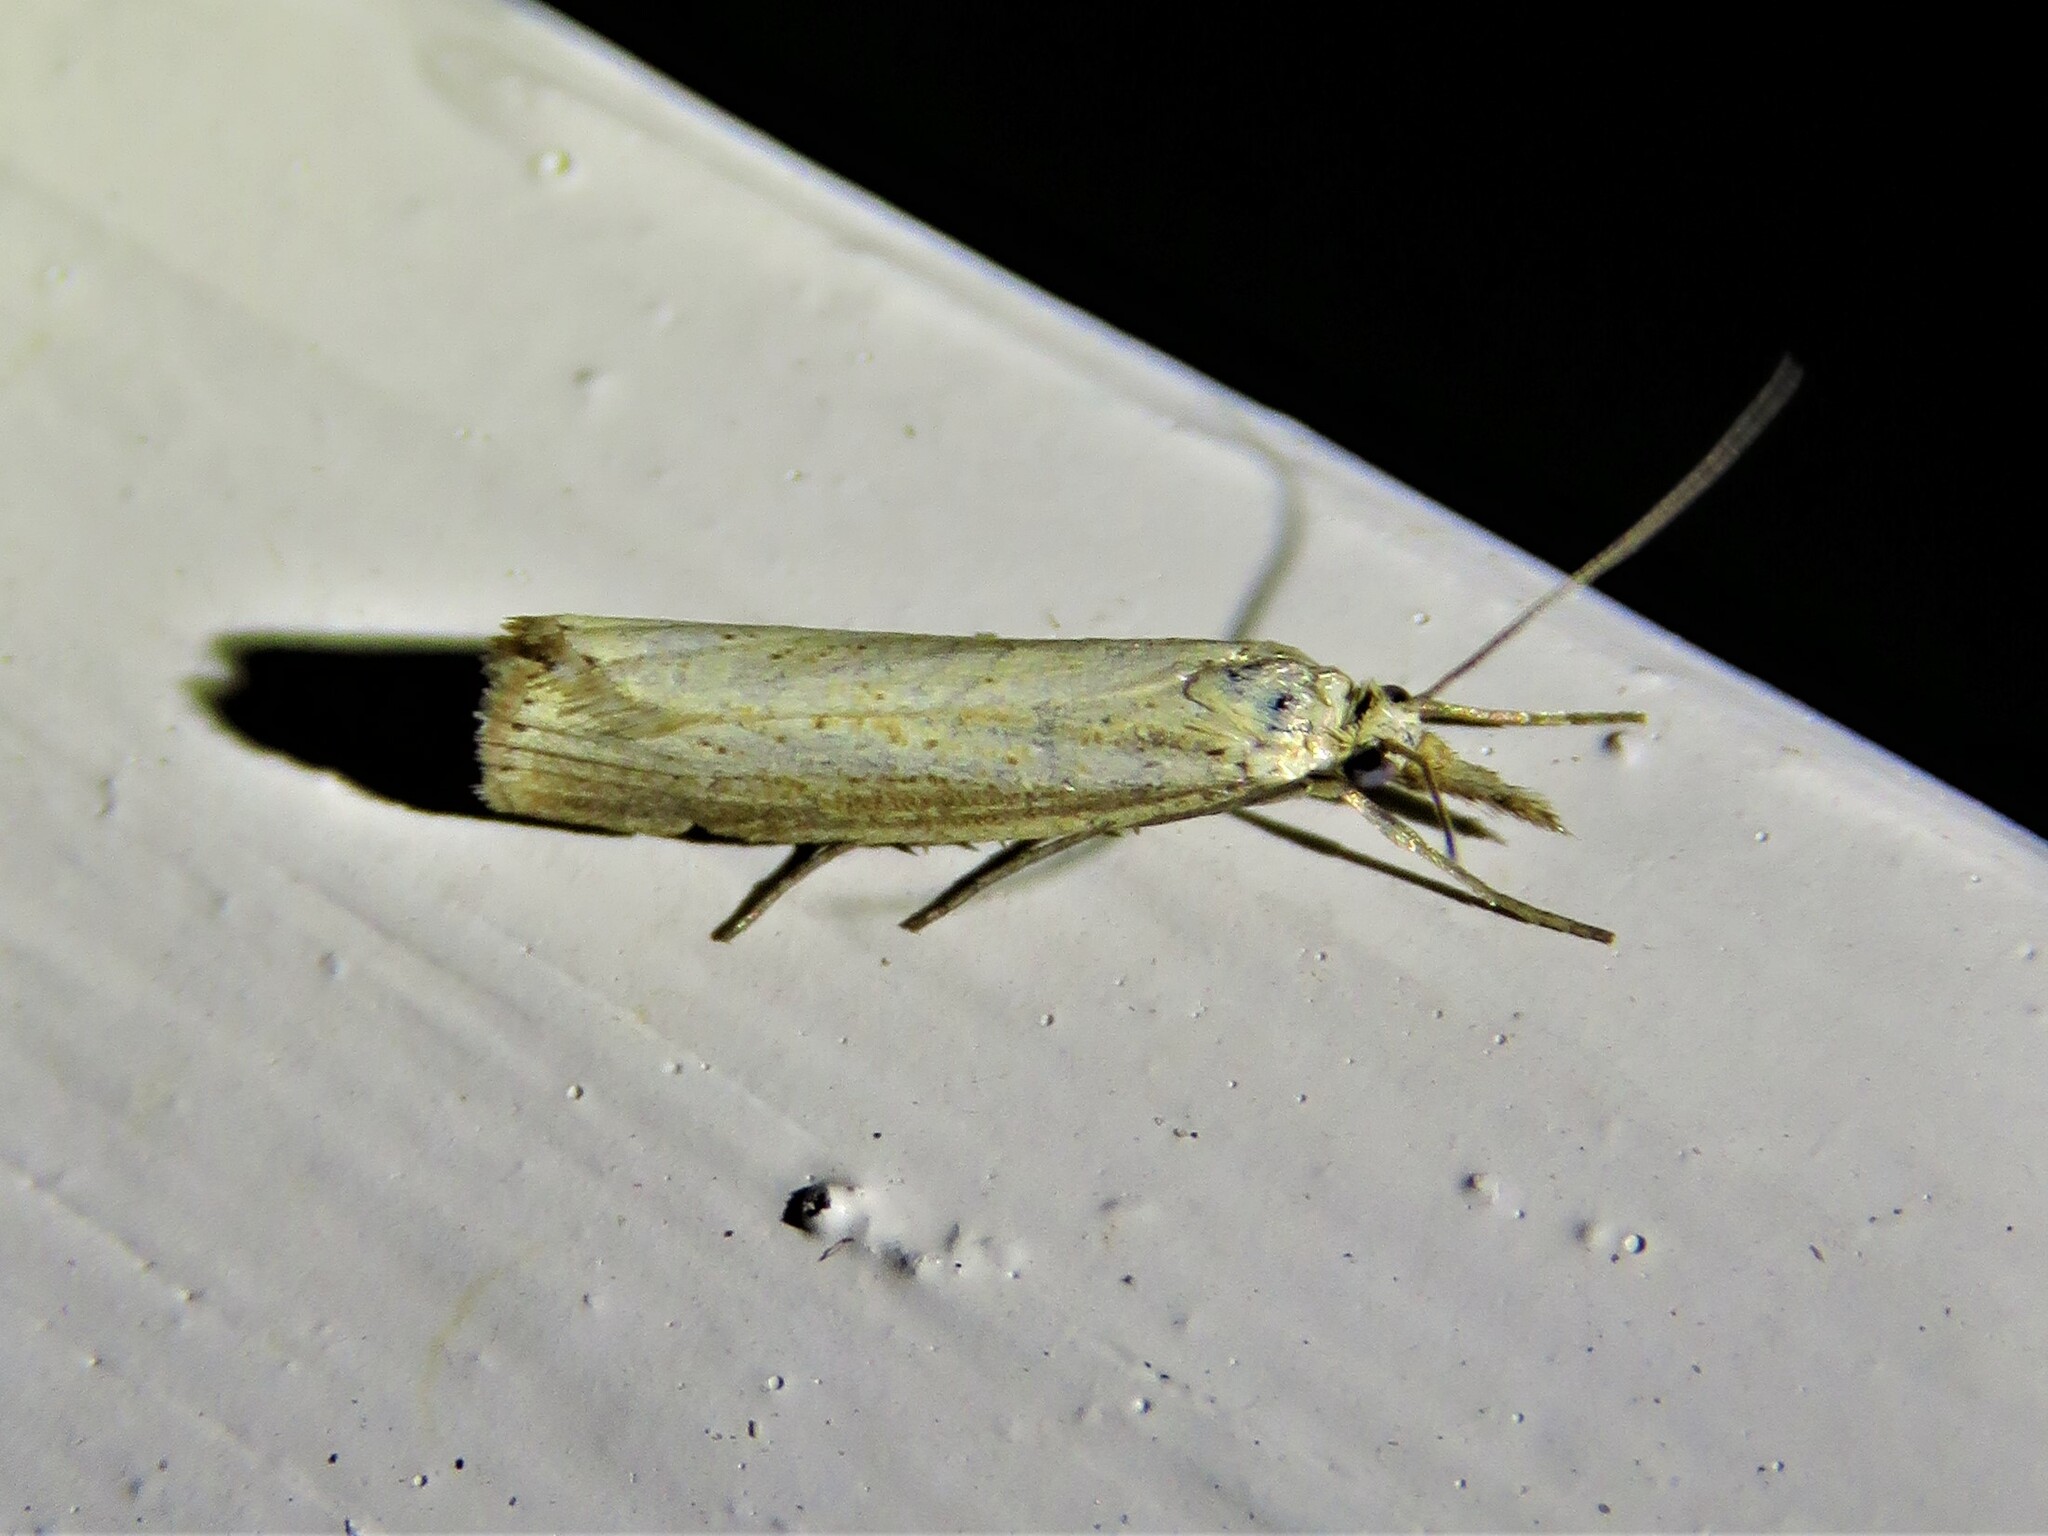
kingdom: Animalia
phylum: Arthropoda
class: Insecta
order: Lepidoptera
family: Crambidae
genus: Agriphila
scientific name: Agriphila straminella
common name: Straw grass-veneer
